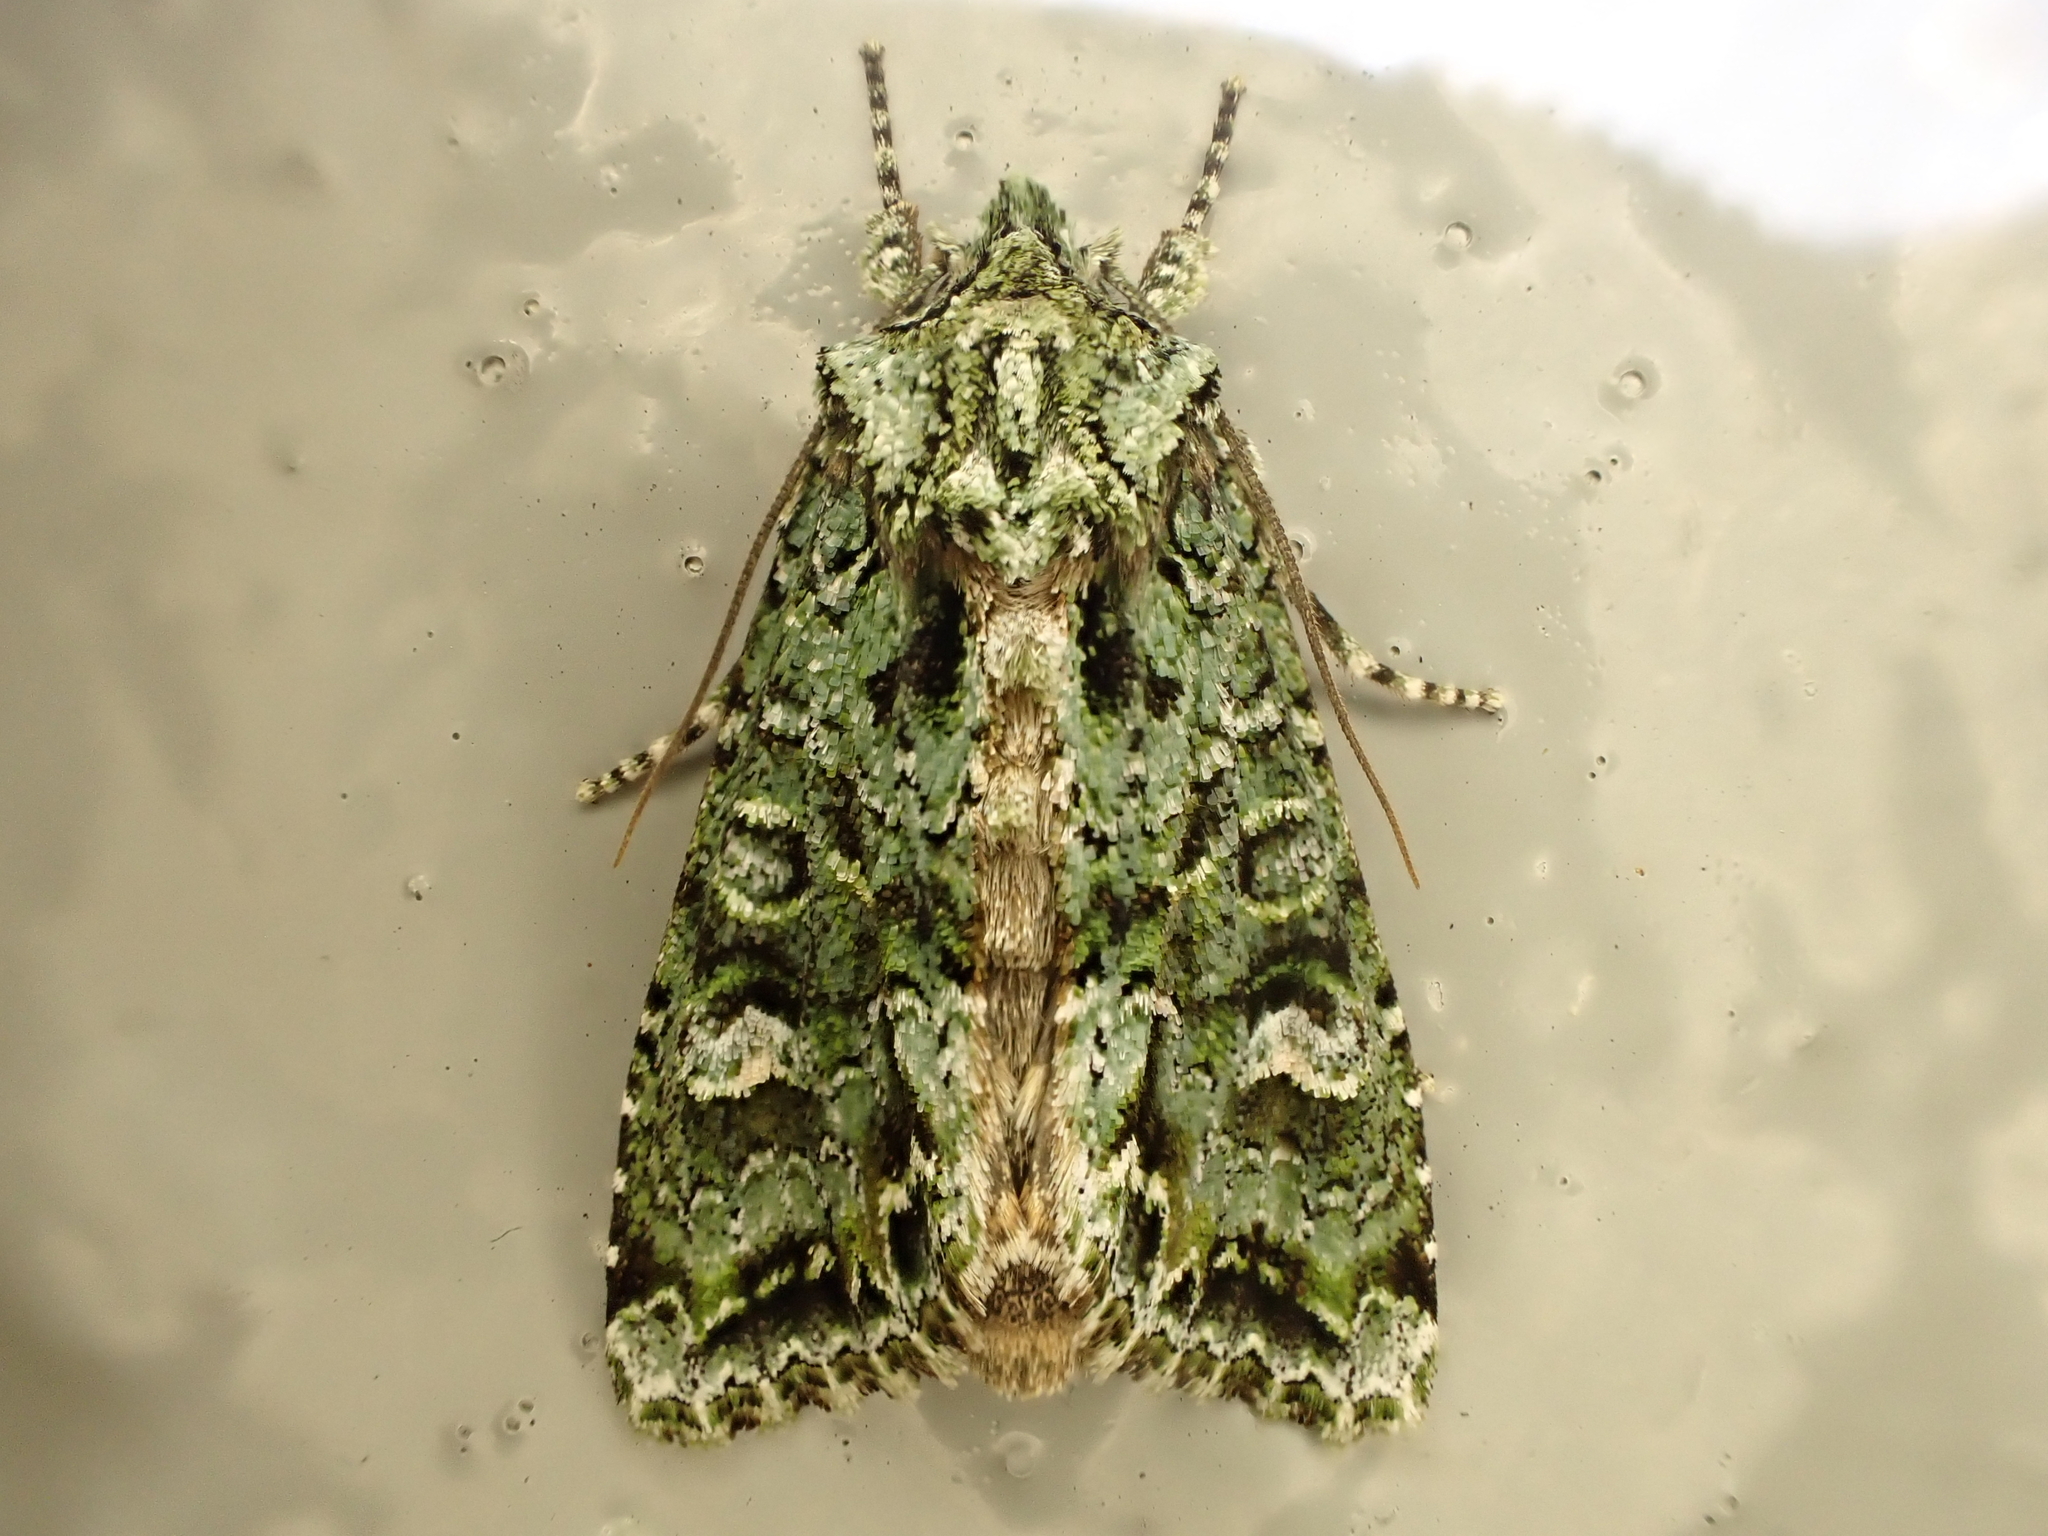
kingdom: Animalia
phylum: Arthropoda
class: Insecta
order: Lepidoptera
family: Noctuidae
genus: Ichneutica
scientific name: Ichneutica
